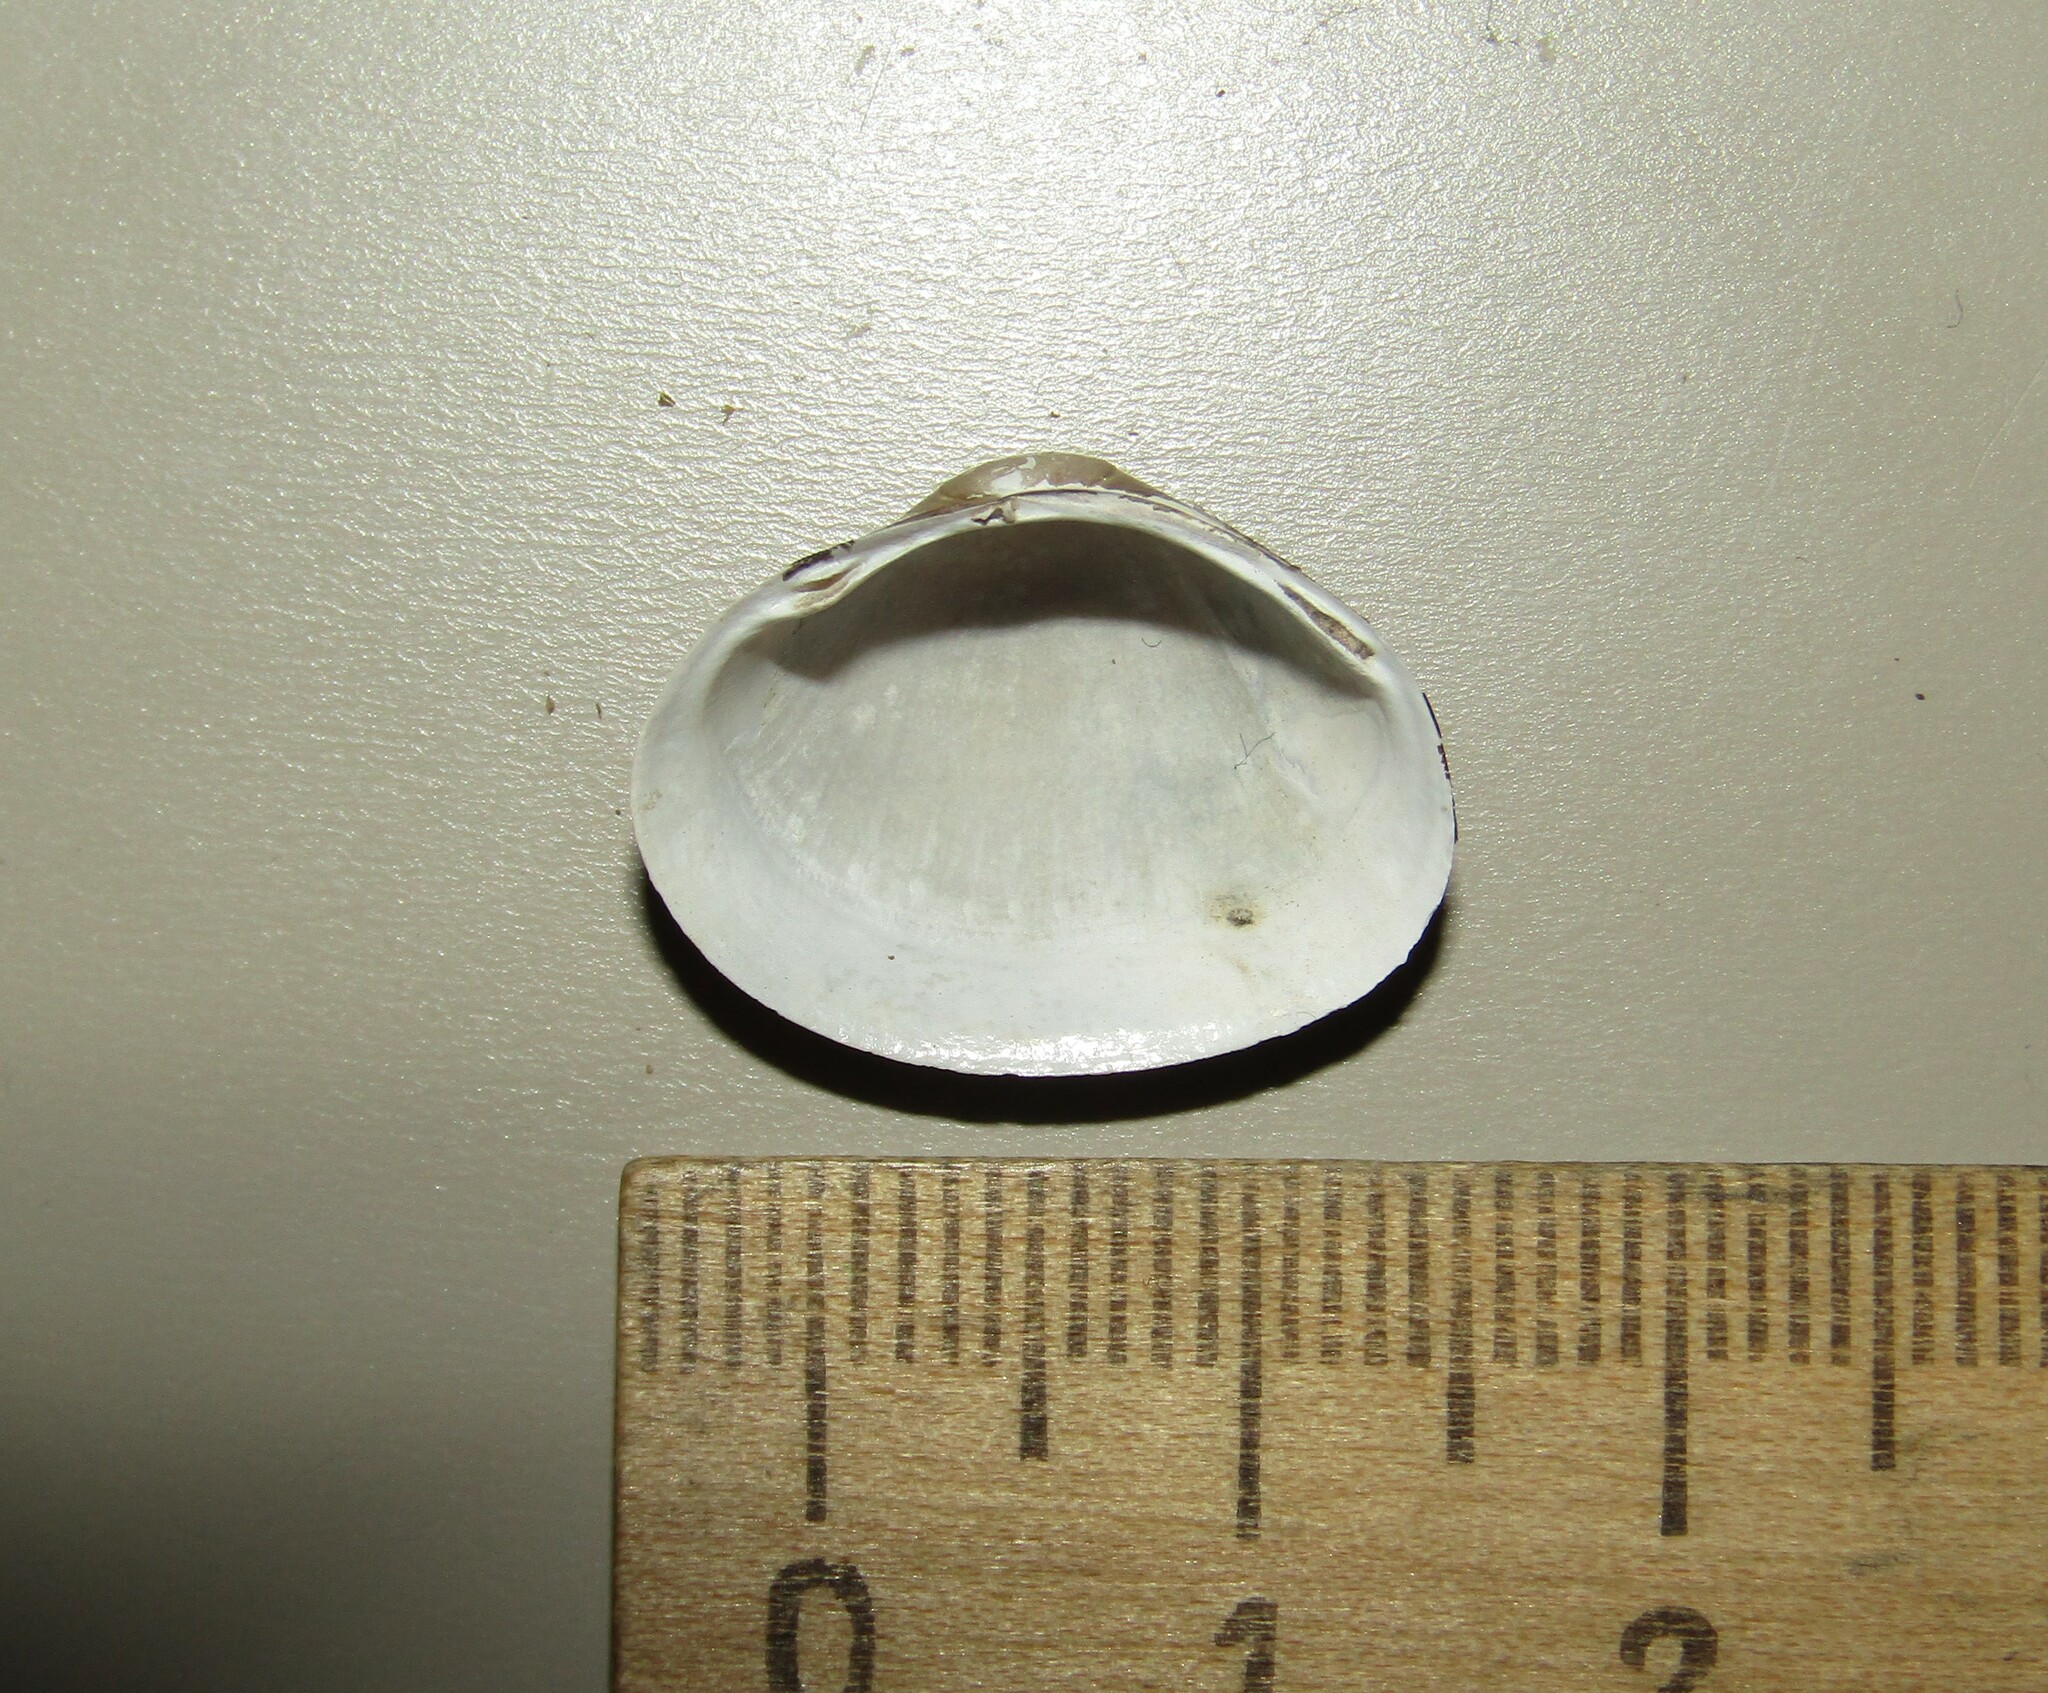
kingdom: Animalia
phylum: Mollusca
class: Bivalvia
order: Sphaeriida
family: Sphaeriidae
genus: Sphaerium
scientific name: Sphaerium rivicola
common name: Nut orb mussel
